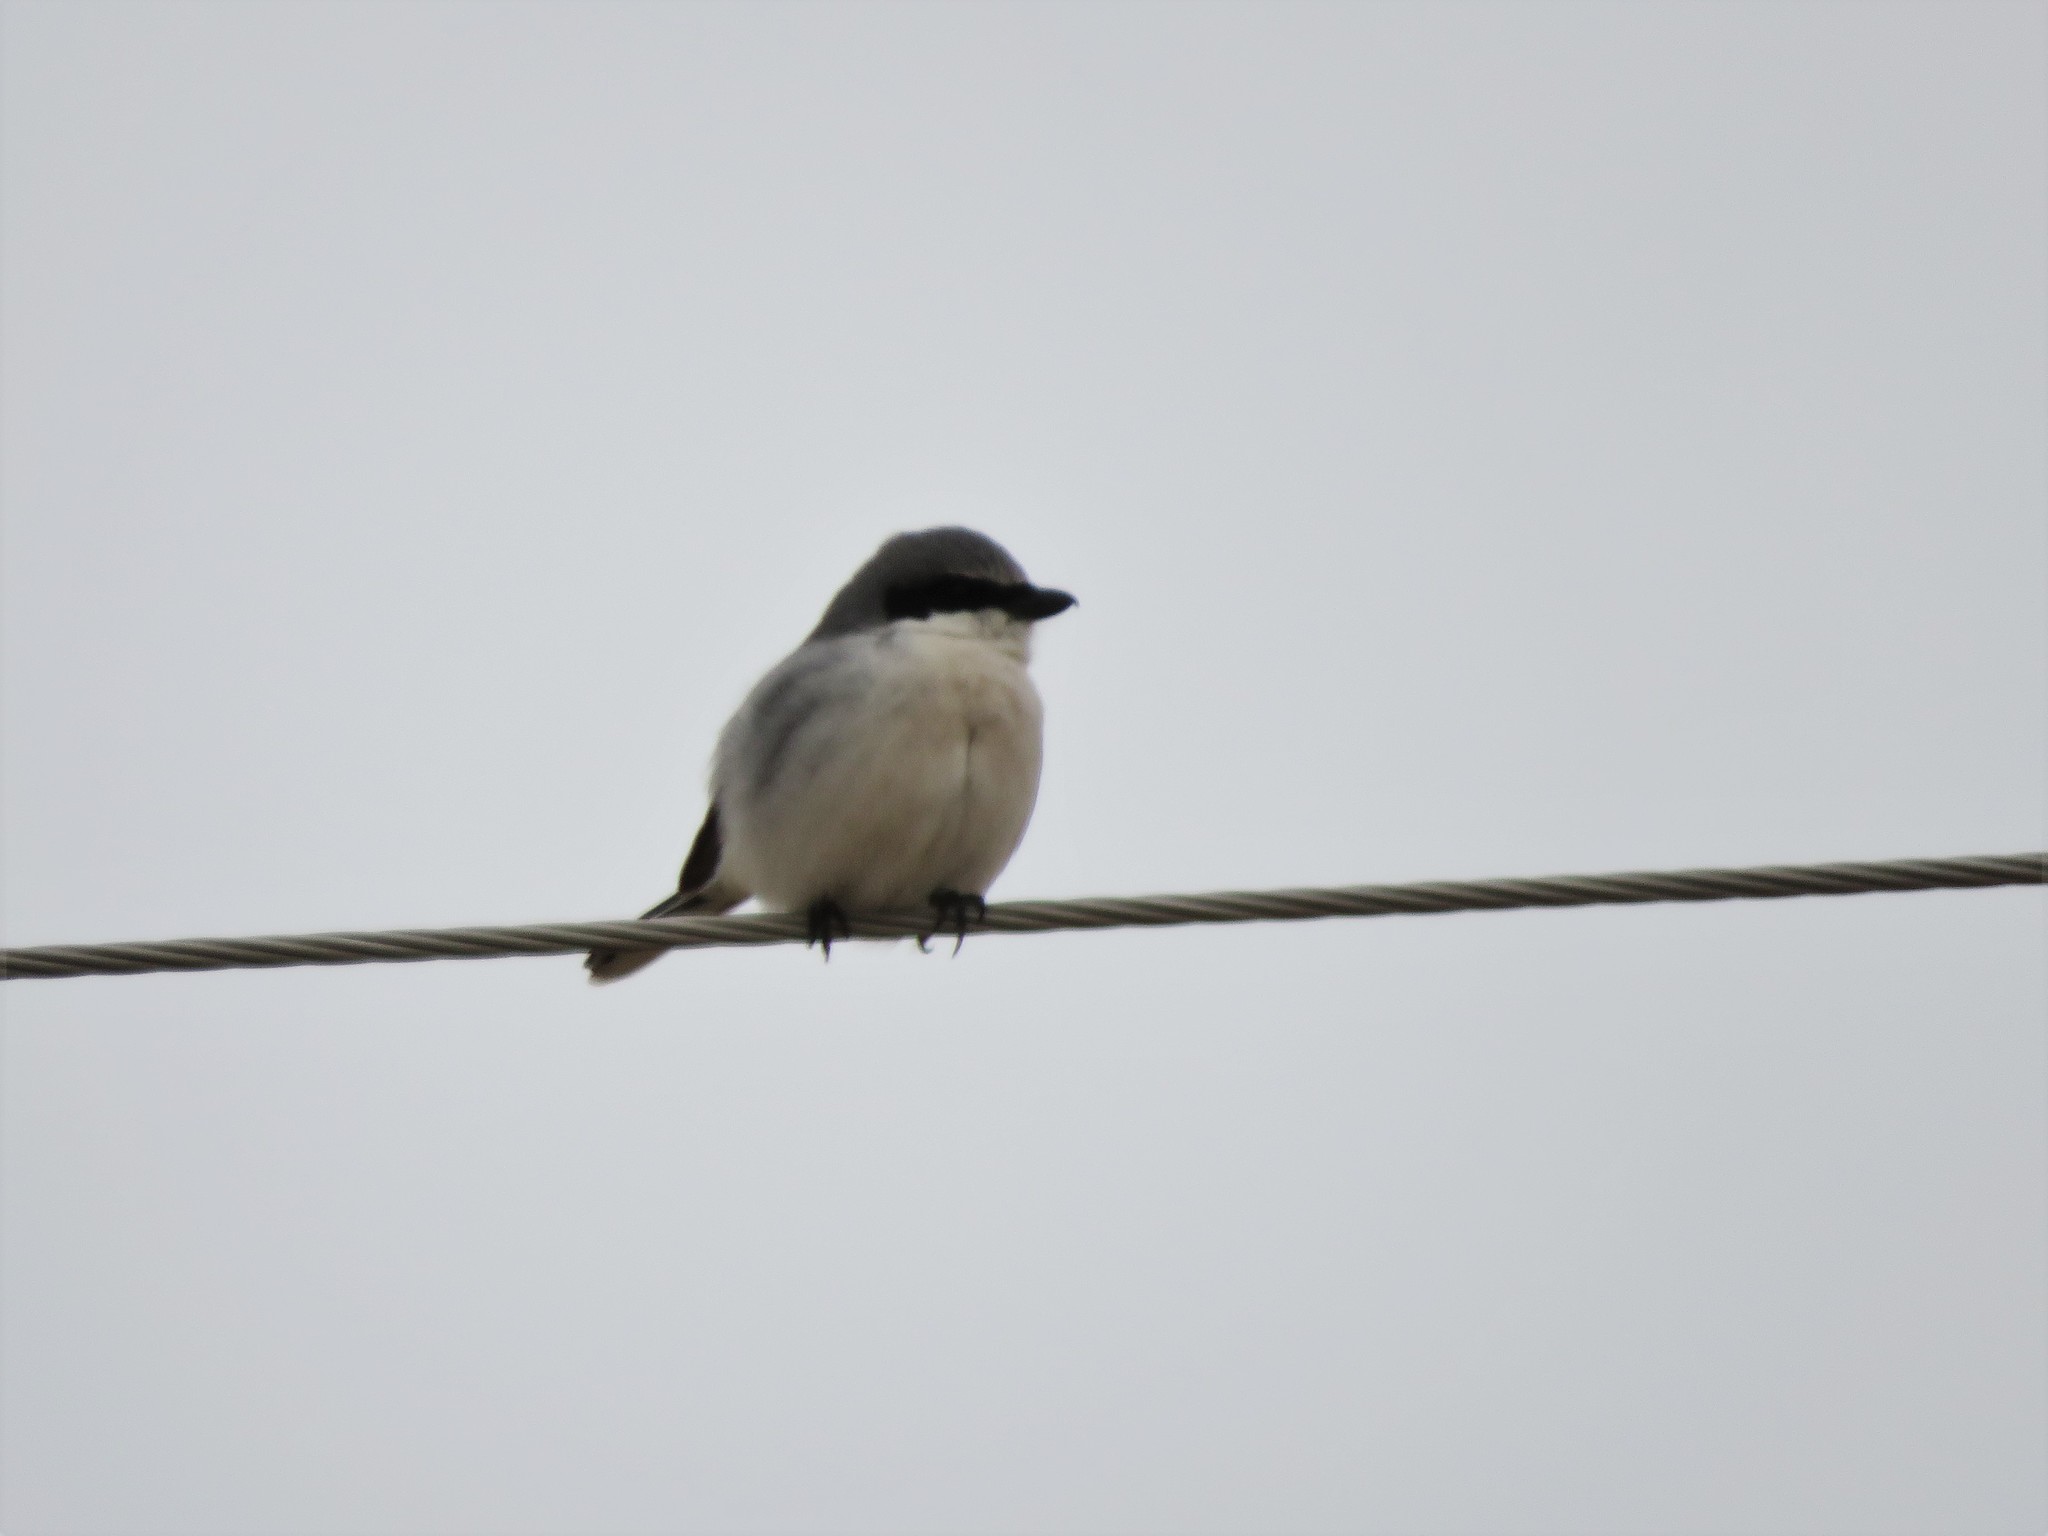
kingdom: Animalia
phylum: Chordata
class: Aves
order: Passeriformes
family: Laniidae
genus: Lanius
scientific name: Lanius ludovicianus
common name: Loggerhead shrike
